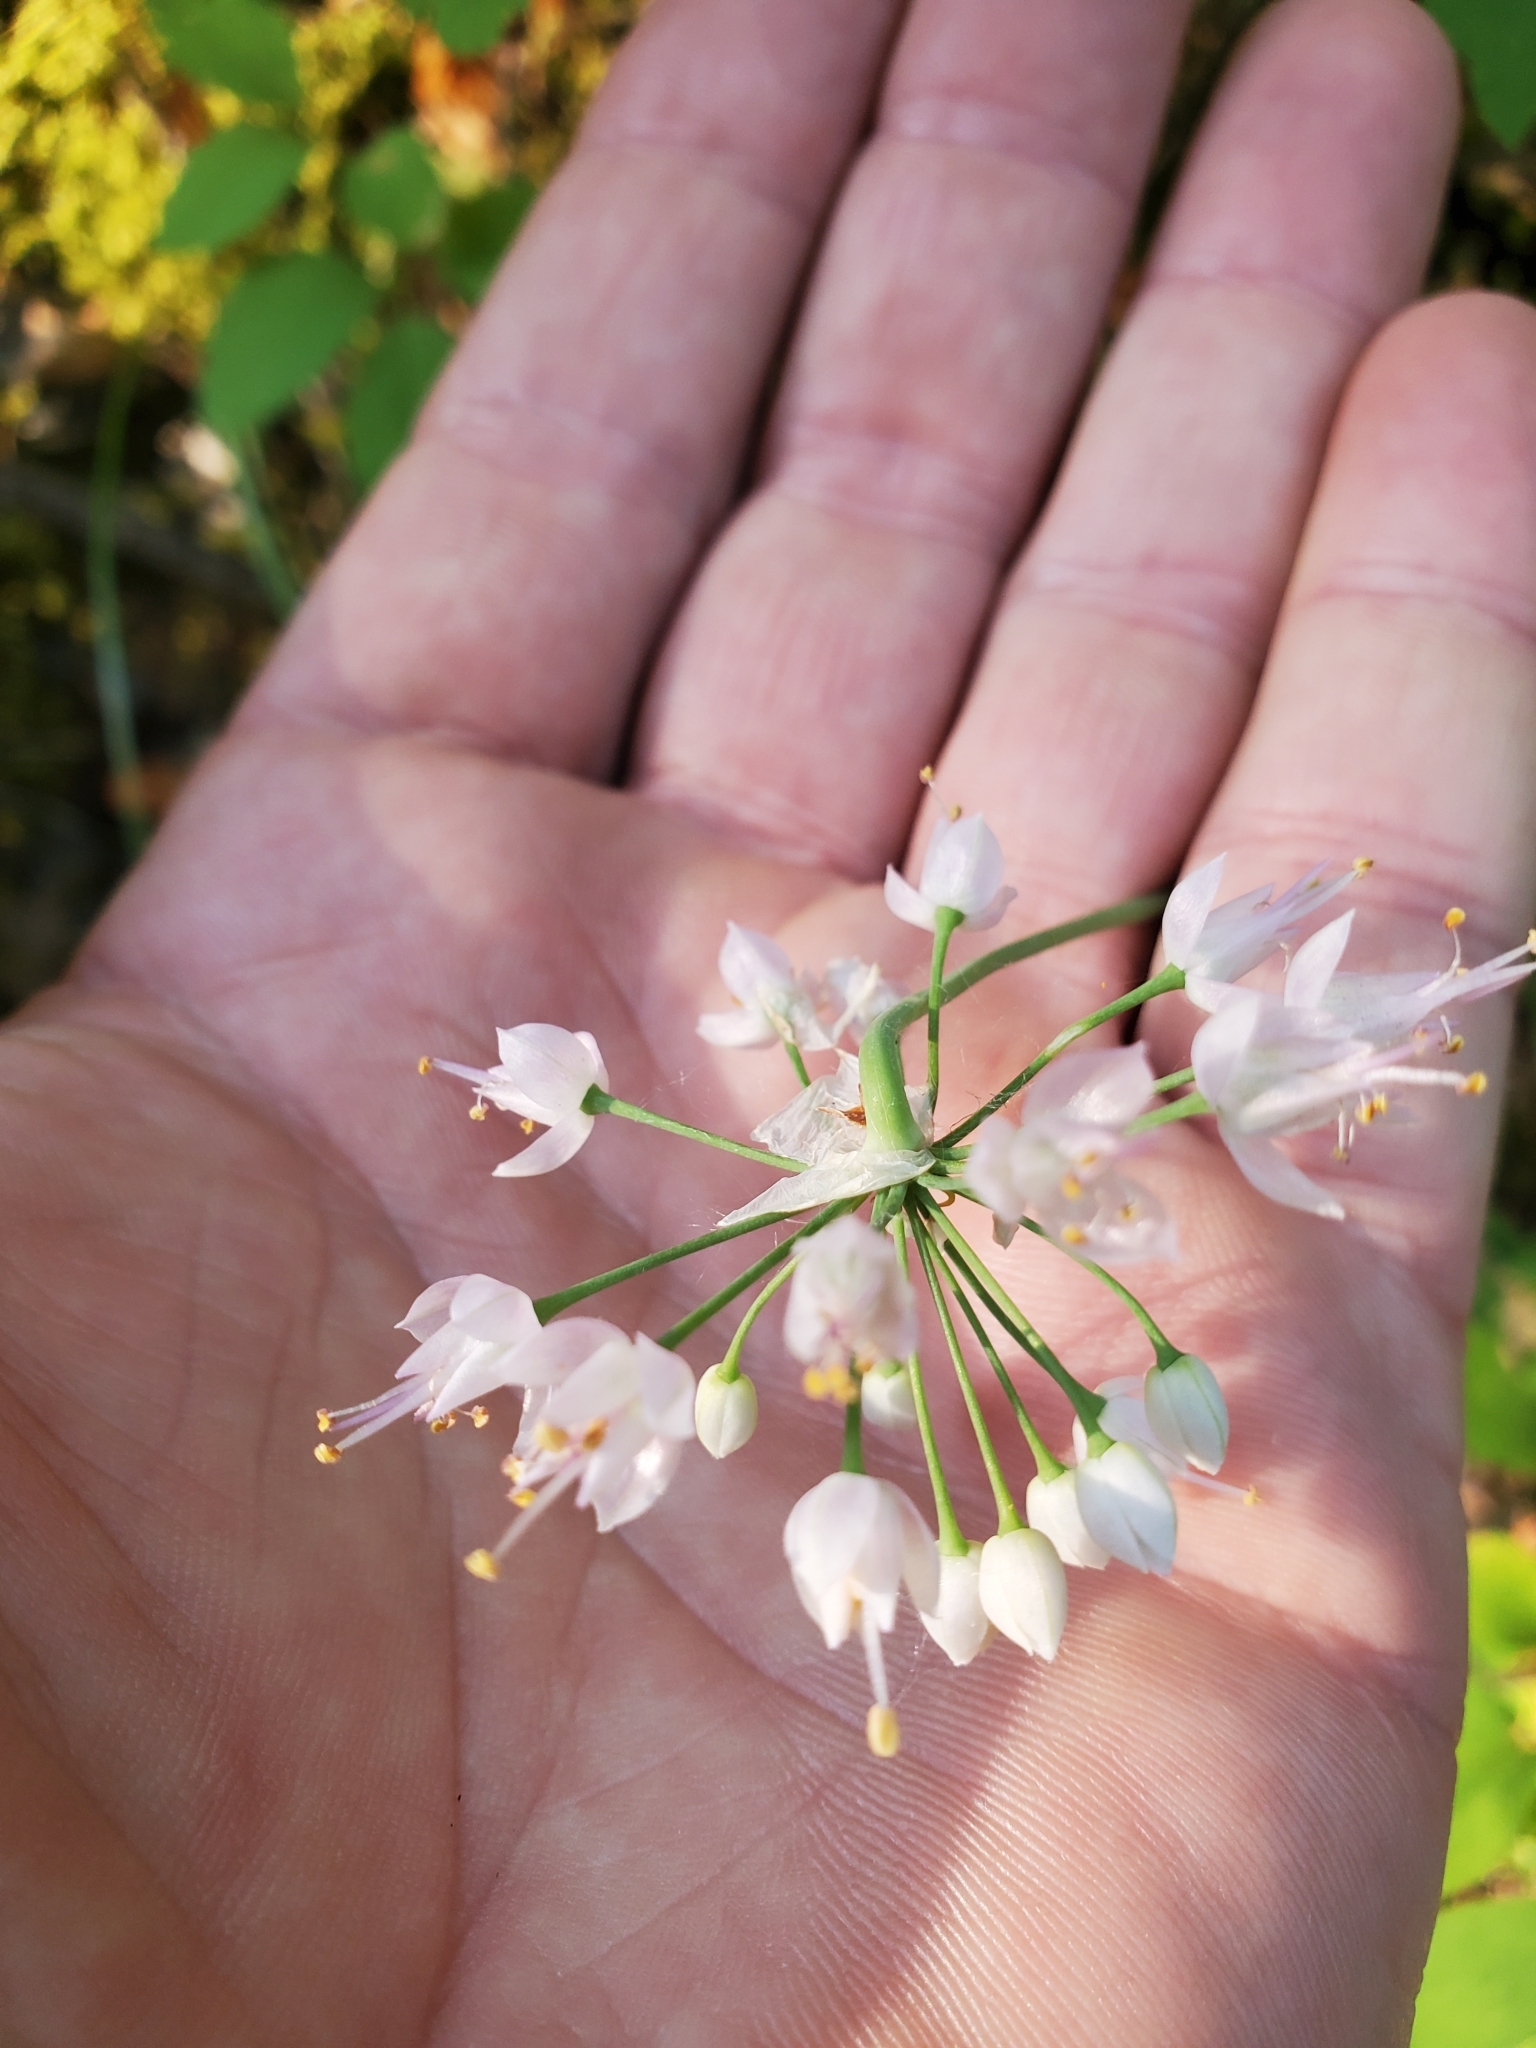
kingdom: Plantae
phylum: Tracheophyta
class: Liliopsida
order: Asparagales
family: Amaryllidaceae
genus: Allium
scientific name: Allium cernuum
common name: Nodding onion
